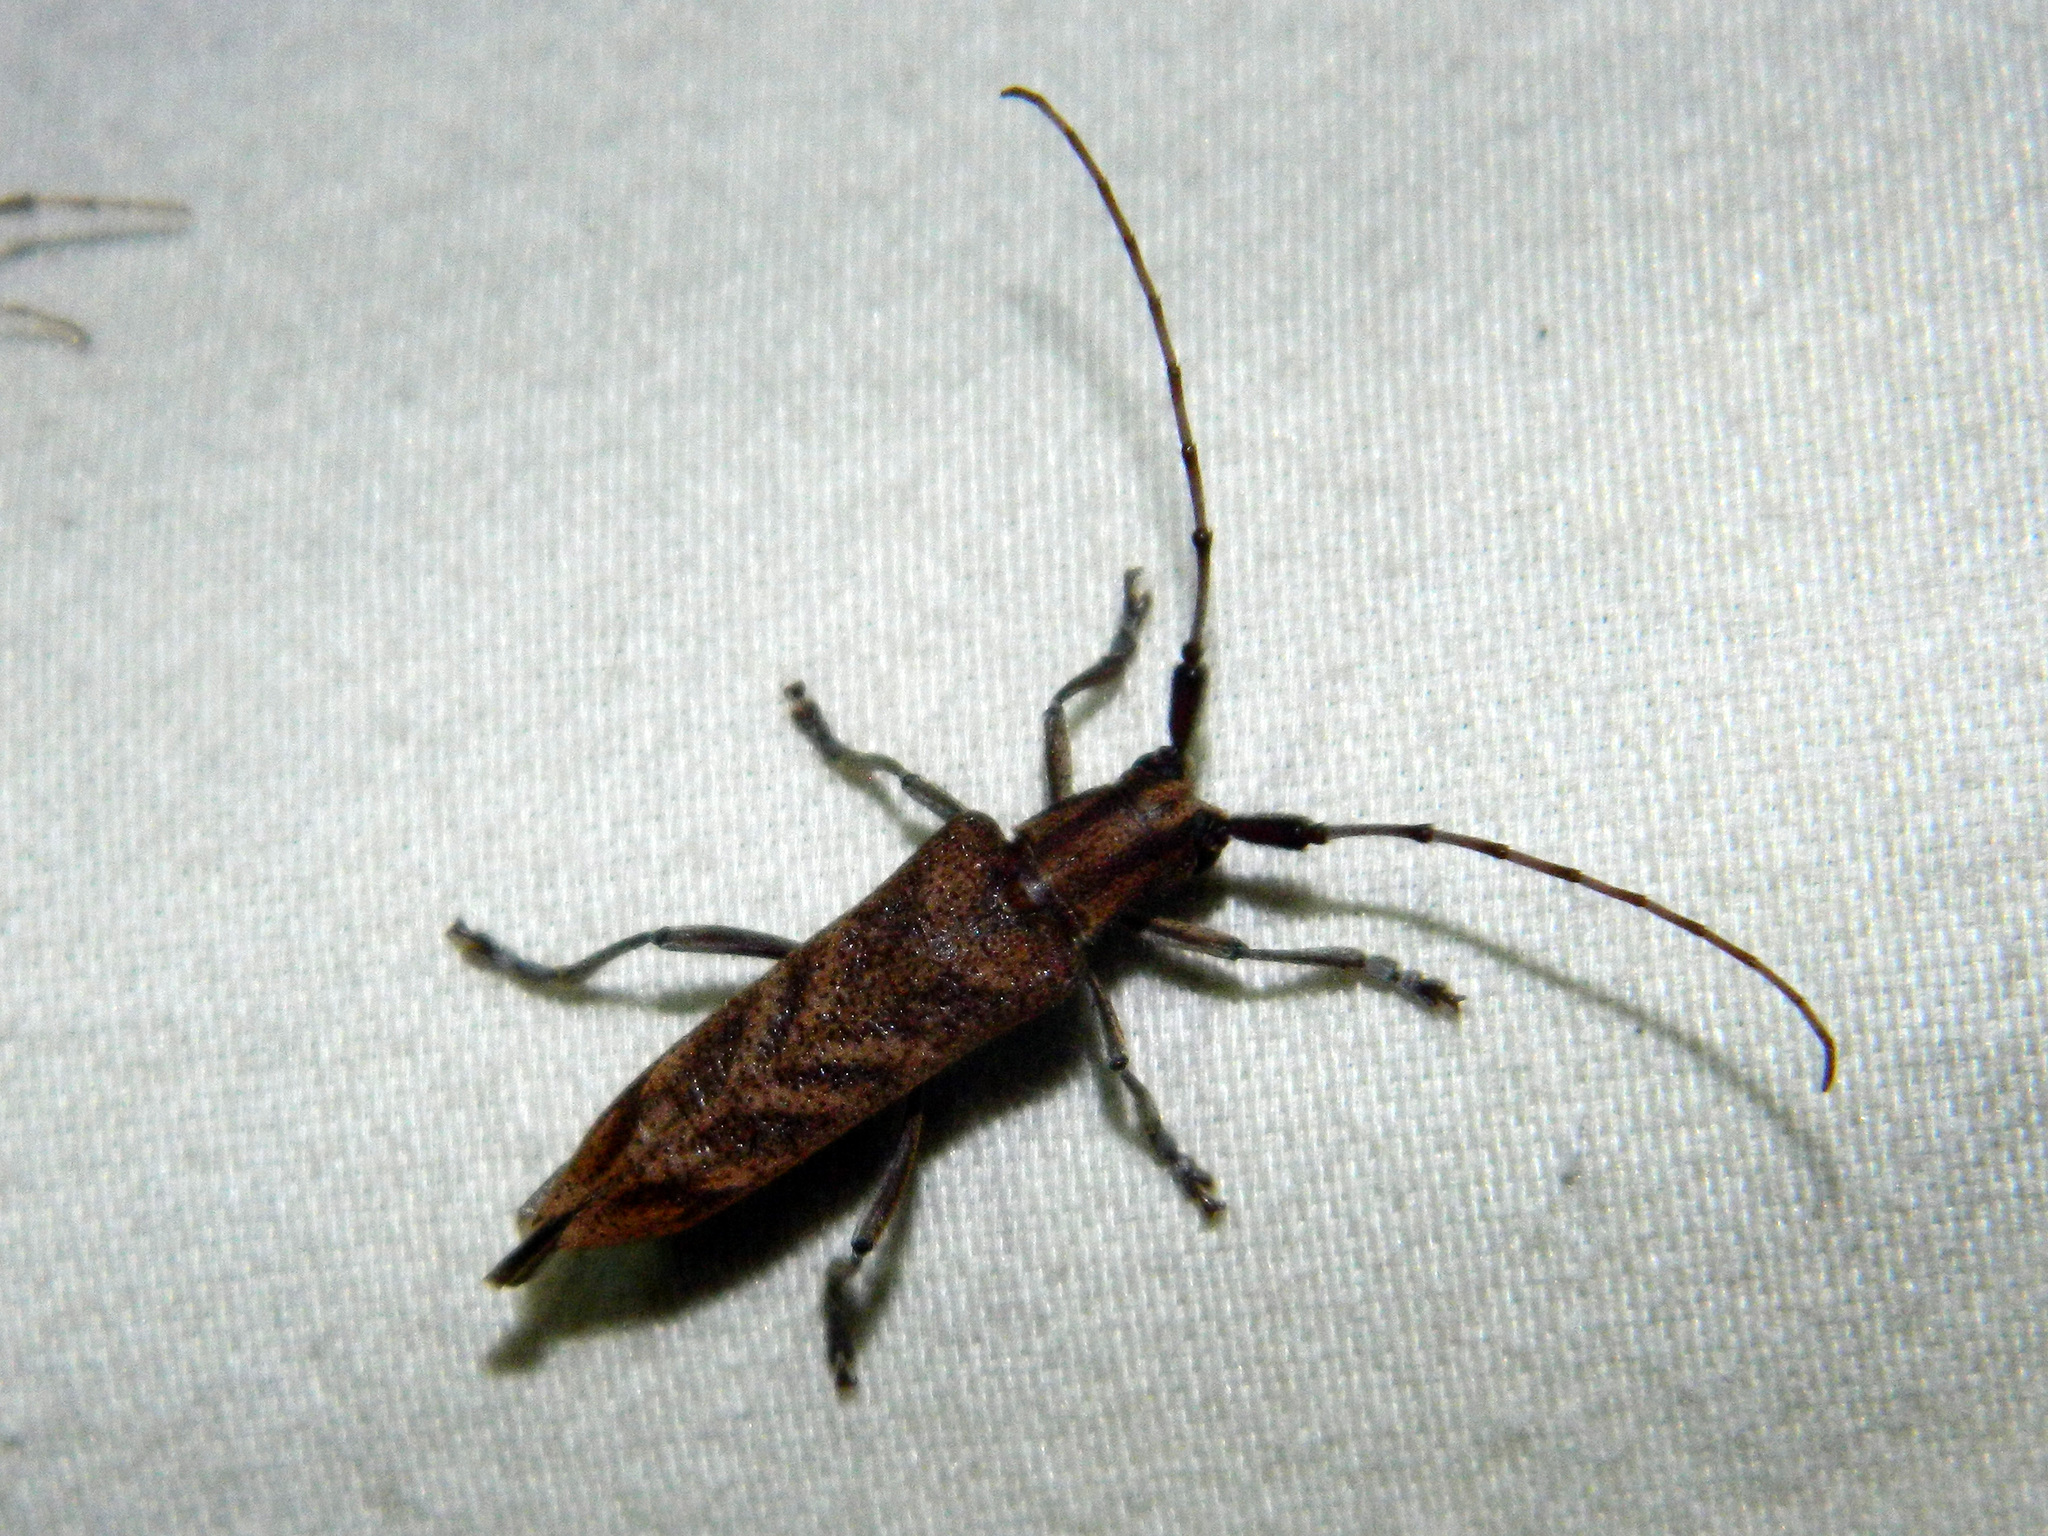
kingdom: Animalia
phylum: Arthropoda
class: Insecta
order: Coleoptera
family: Cerambycidae
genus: Saperda
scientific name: Saperda obliqua
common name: Alder borer
